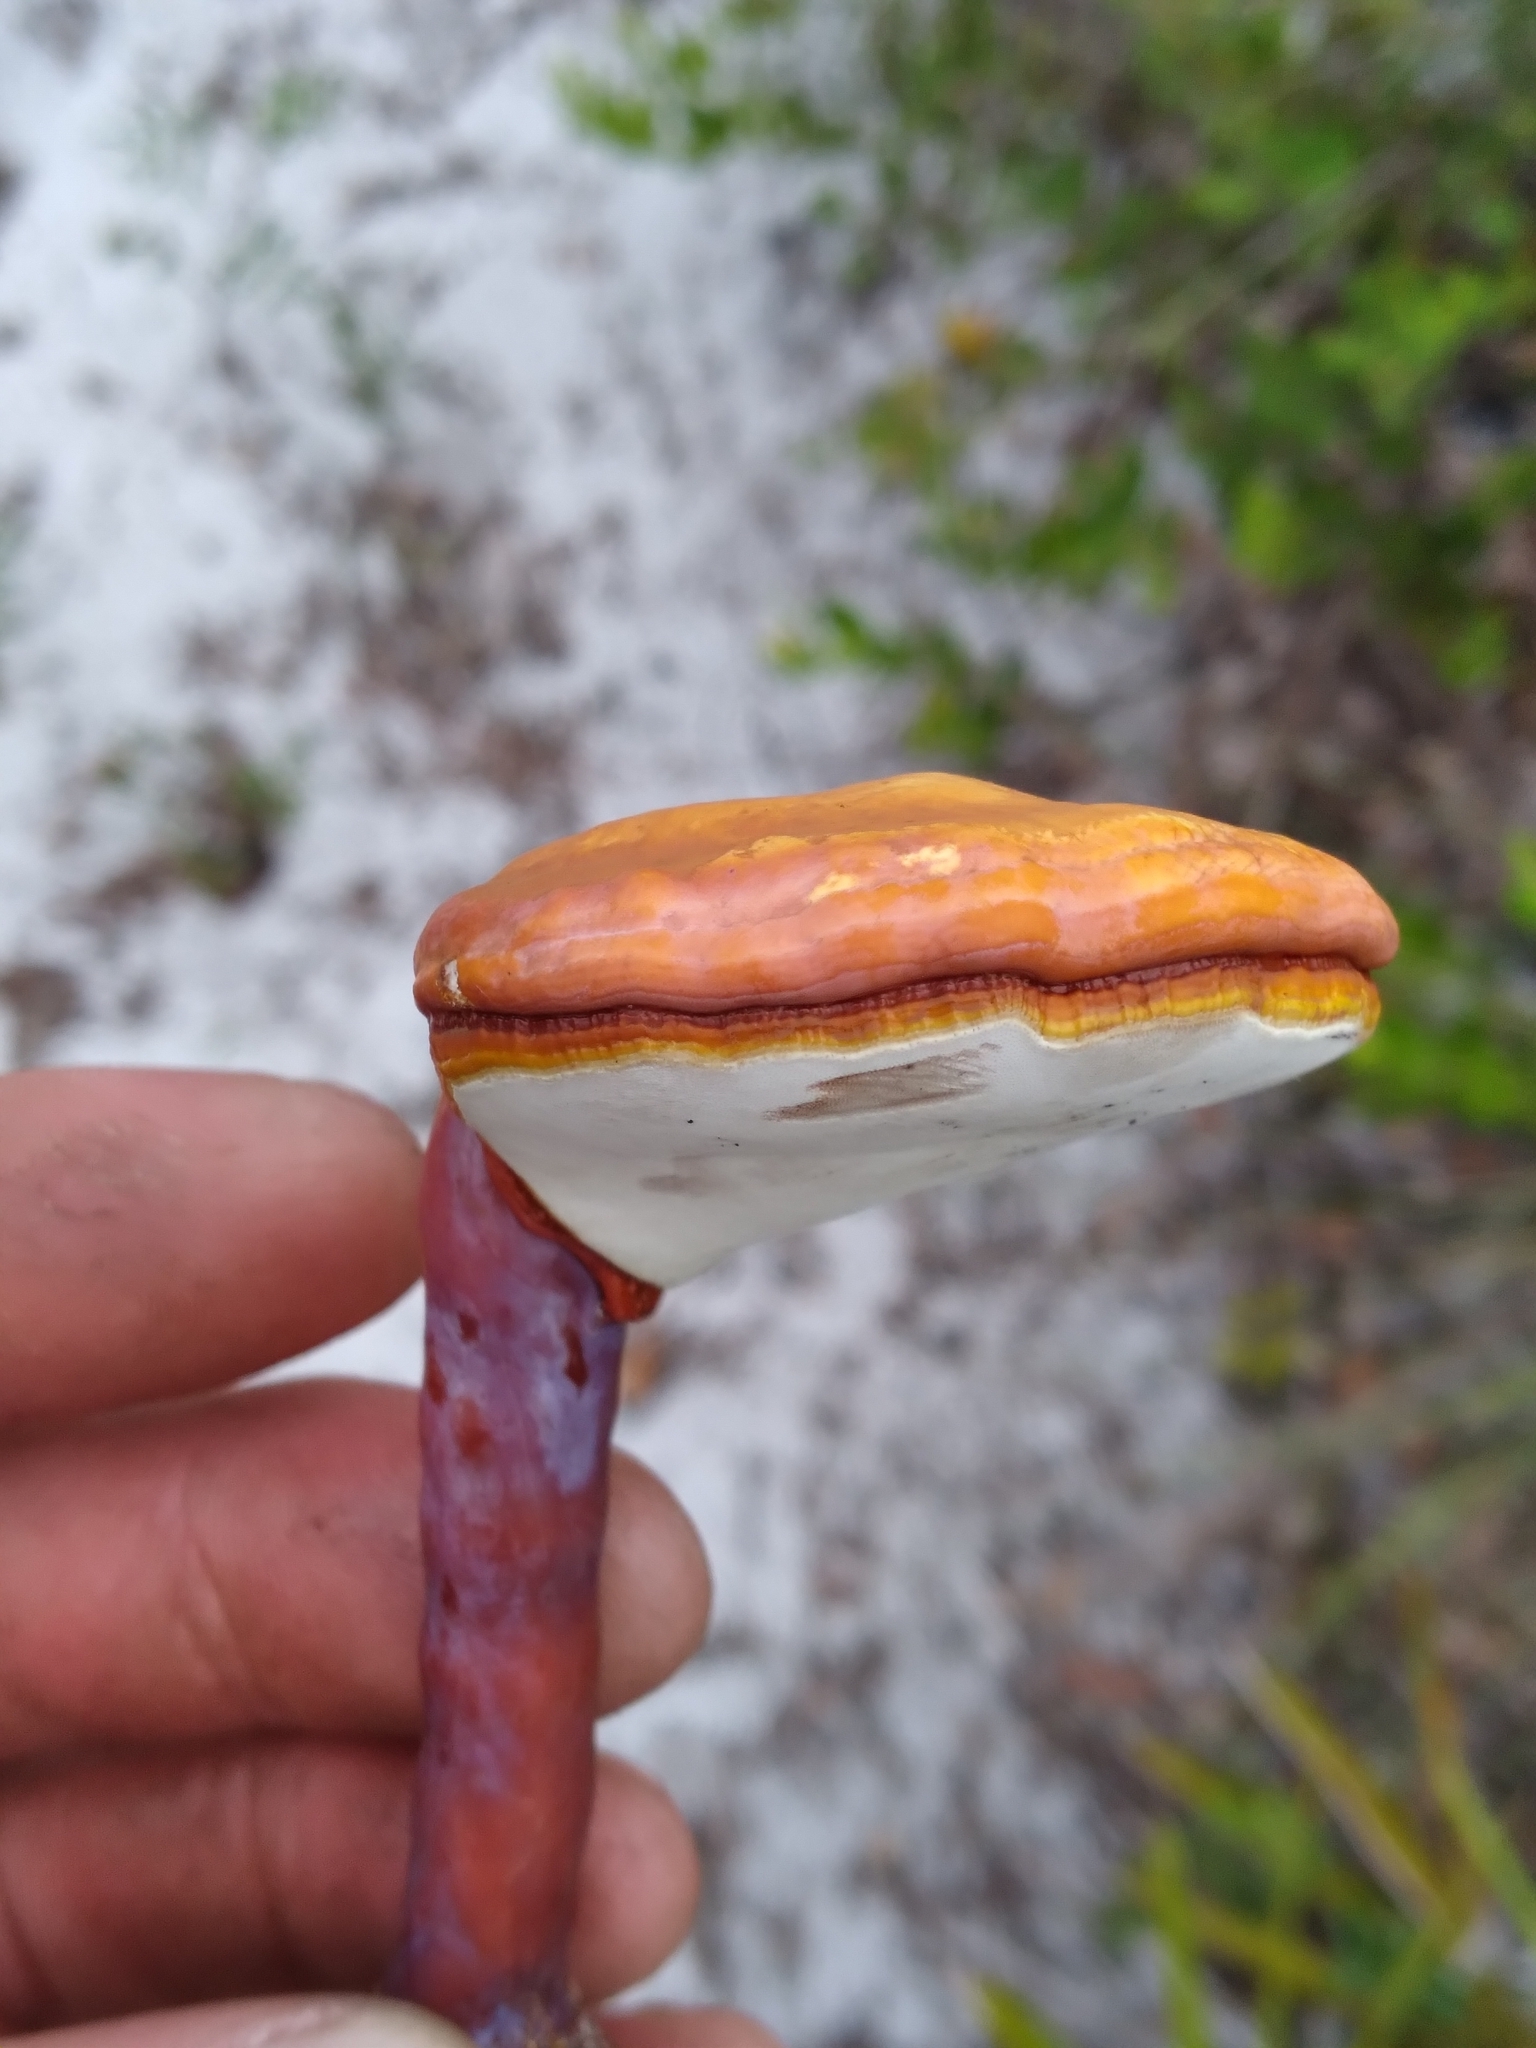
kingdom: Fungi
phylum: Basidiomycota
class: Agaricomycetes
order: Polyporales
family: Polyporaceae
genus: Ganoderma
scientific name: Ganoderma curtisii
